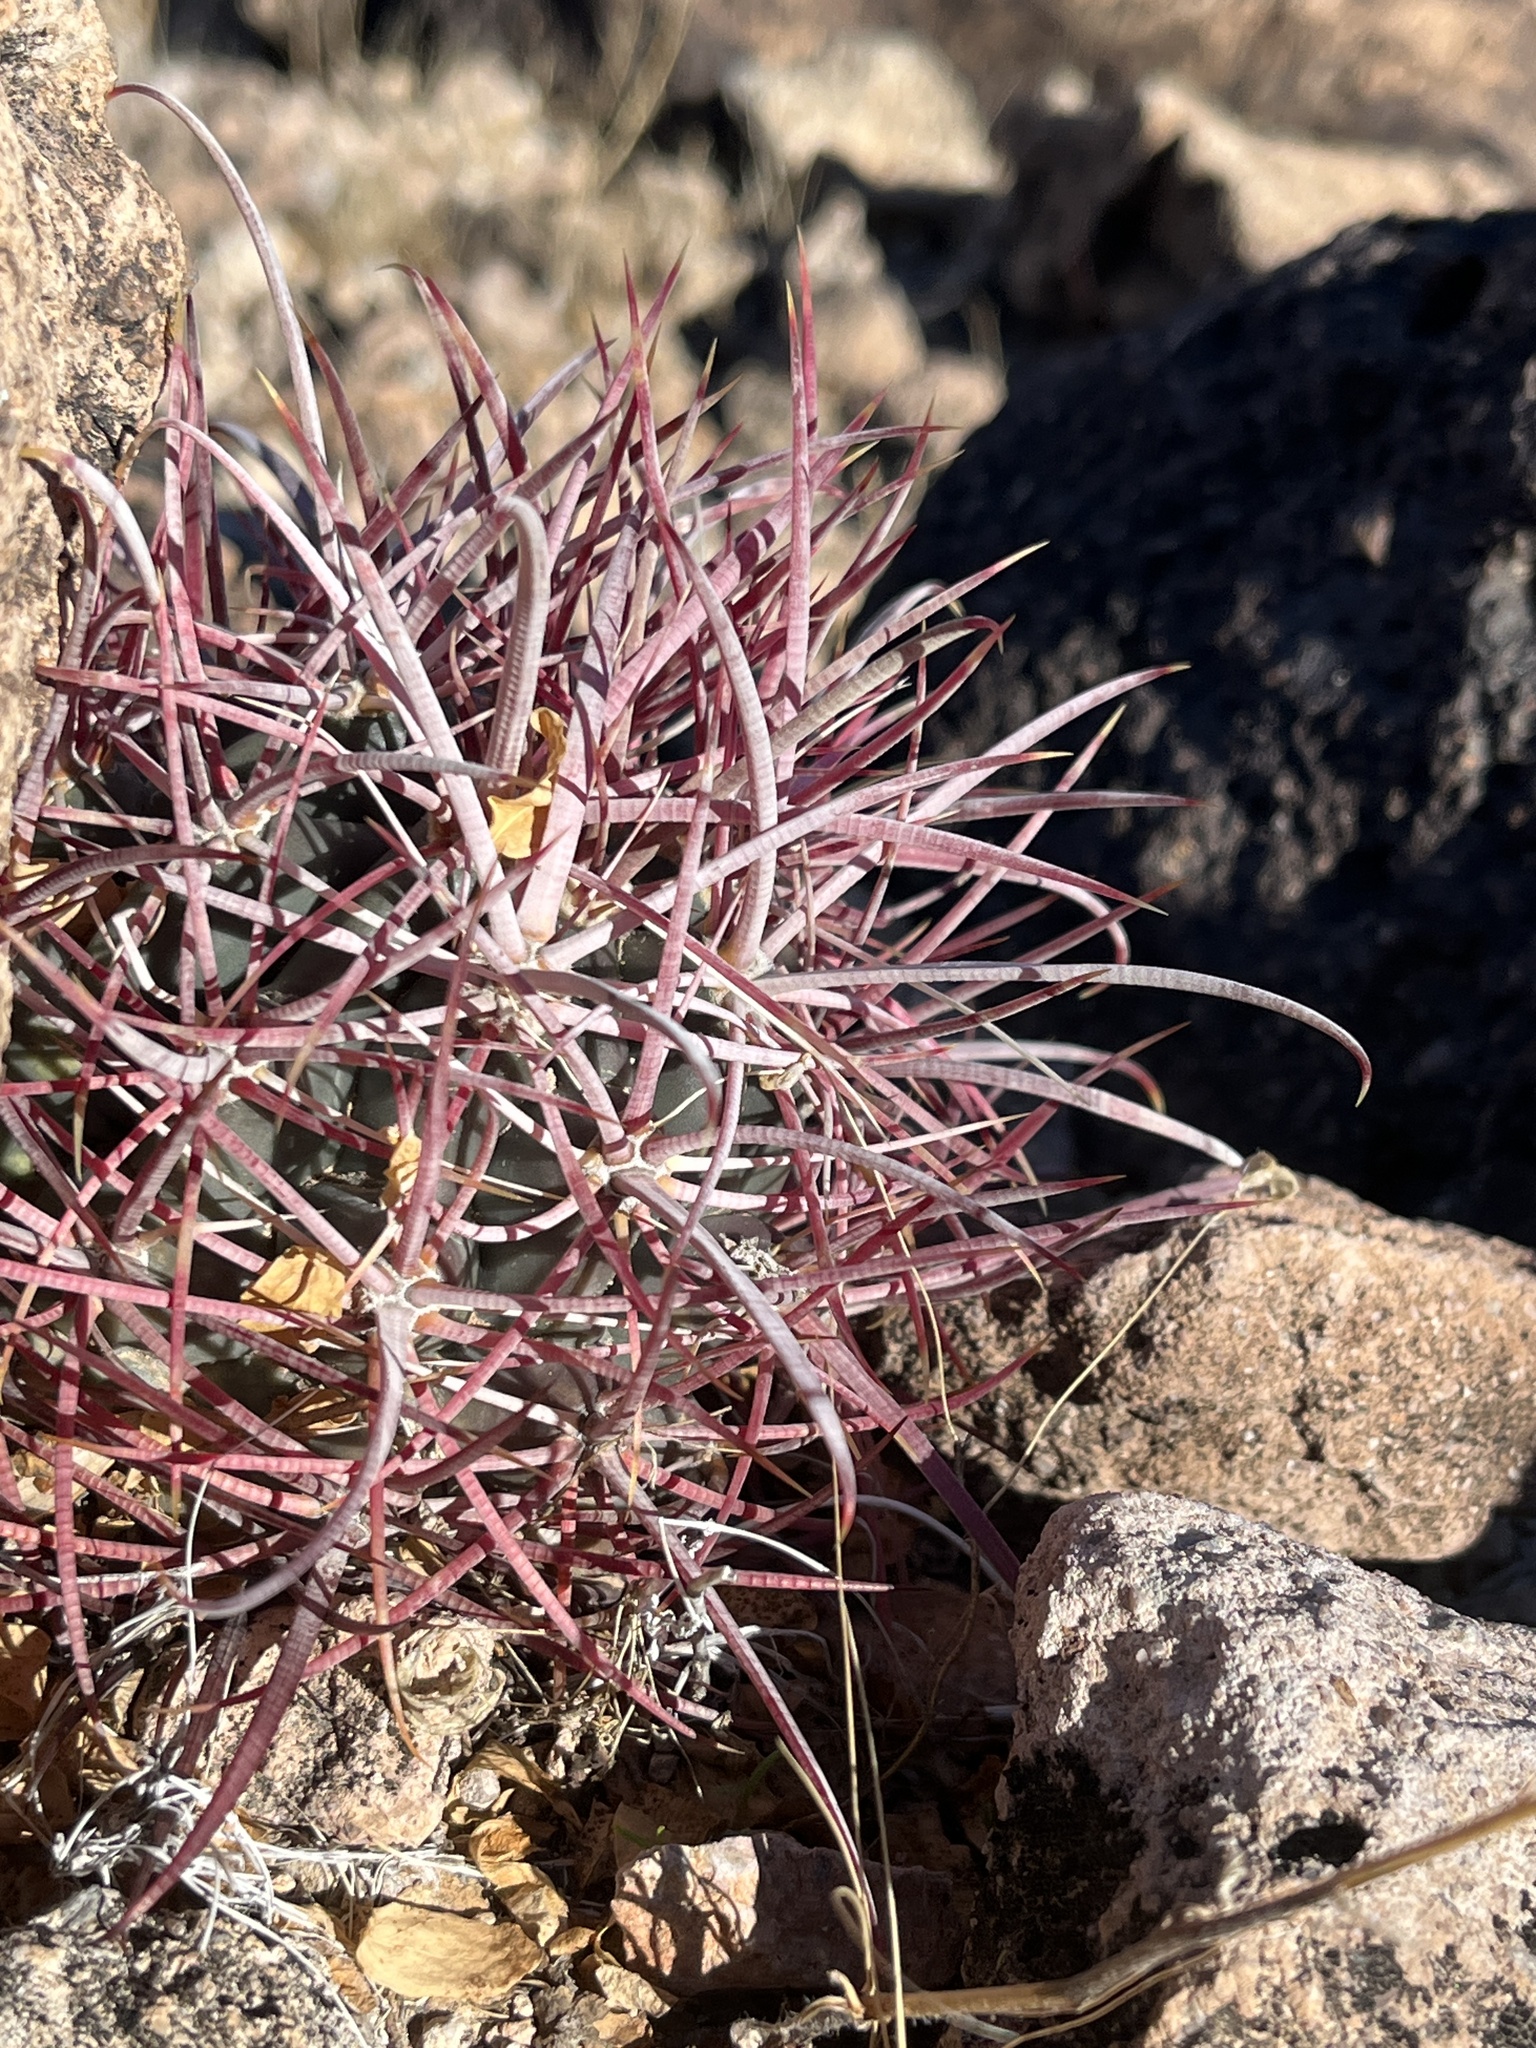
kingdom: Plantae
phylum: Tracheophyta
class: Magnoliopsida
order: Caryophyllales
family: Cactaceae
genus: Ferocactus
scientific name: Ferocactus cylindraceus
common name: California barrel cactus
